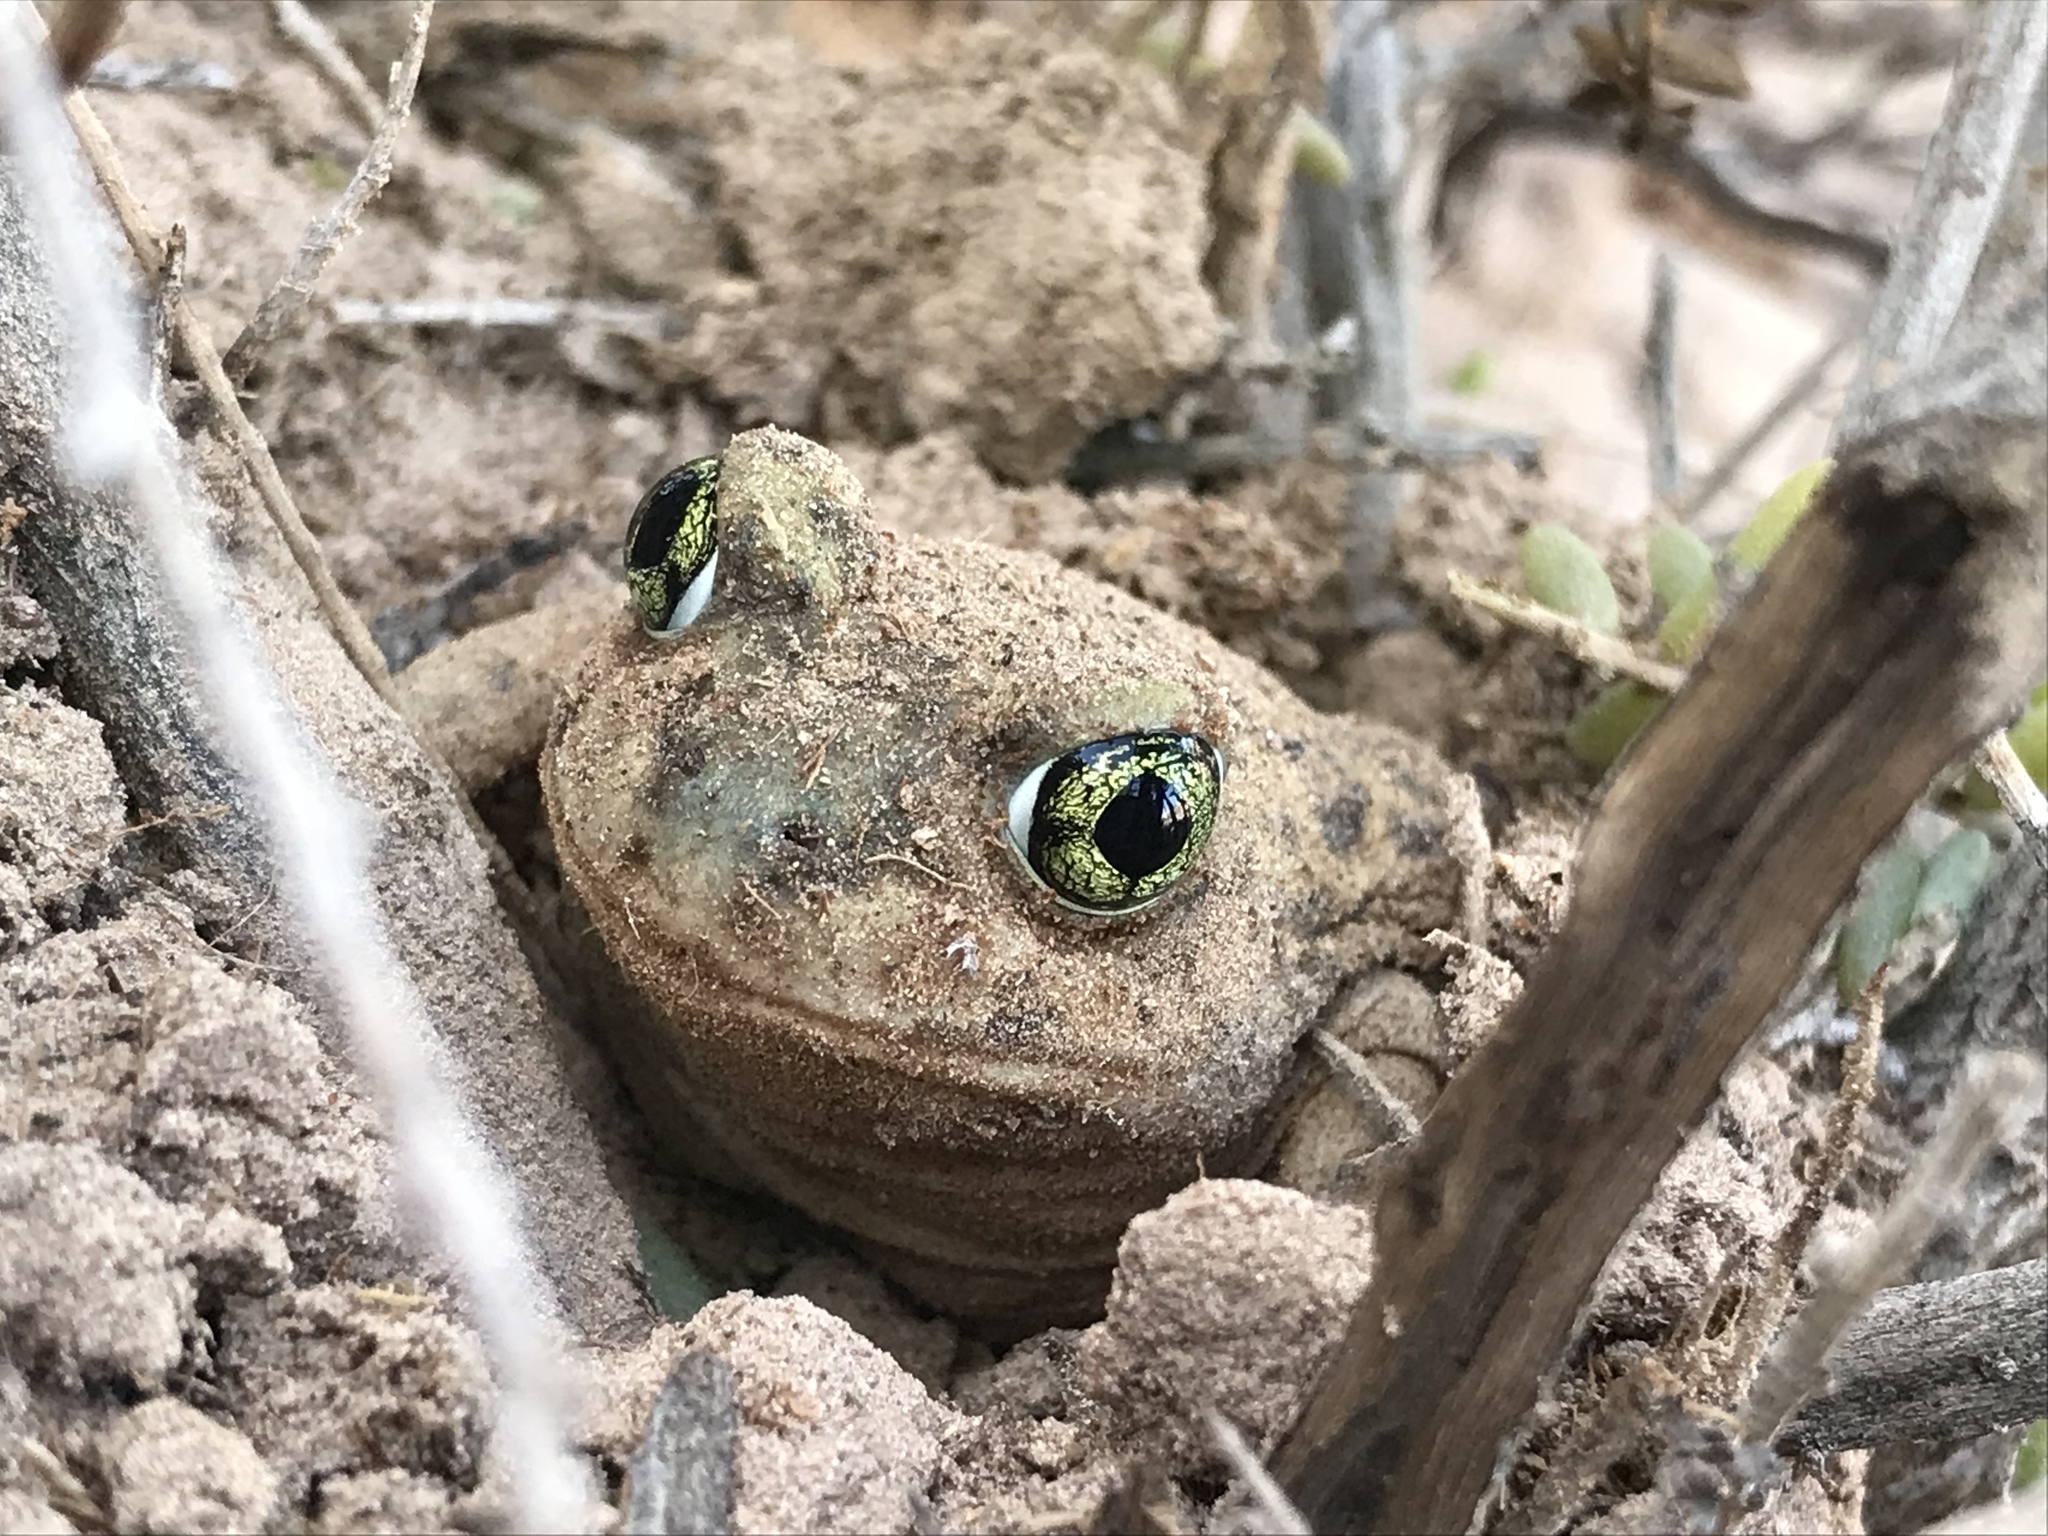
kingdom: Animalia
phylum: Chordata
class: Amphibia
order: Anura
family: Scaphiopodidae
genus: Scaphiopus
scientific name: Scaphiopus couchii
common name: Couch's spadefoot toad
